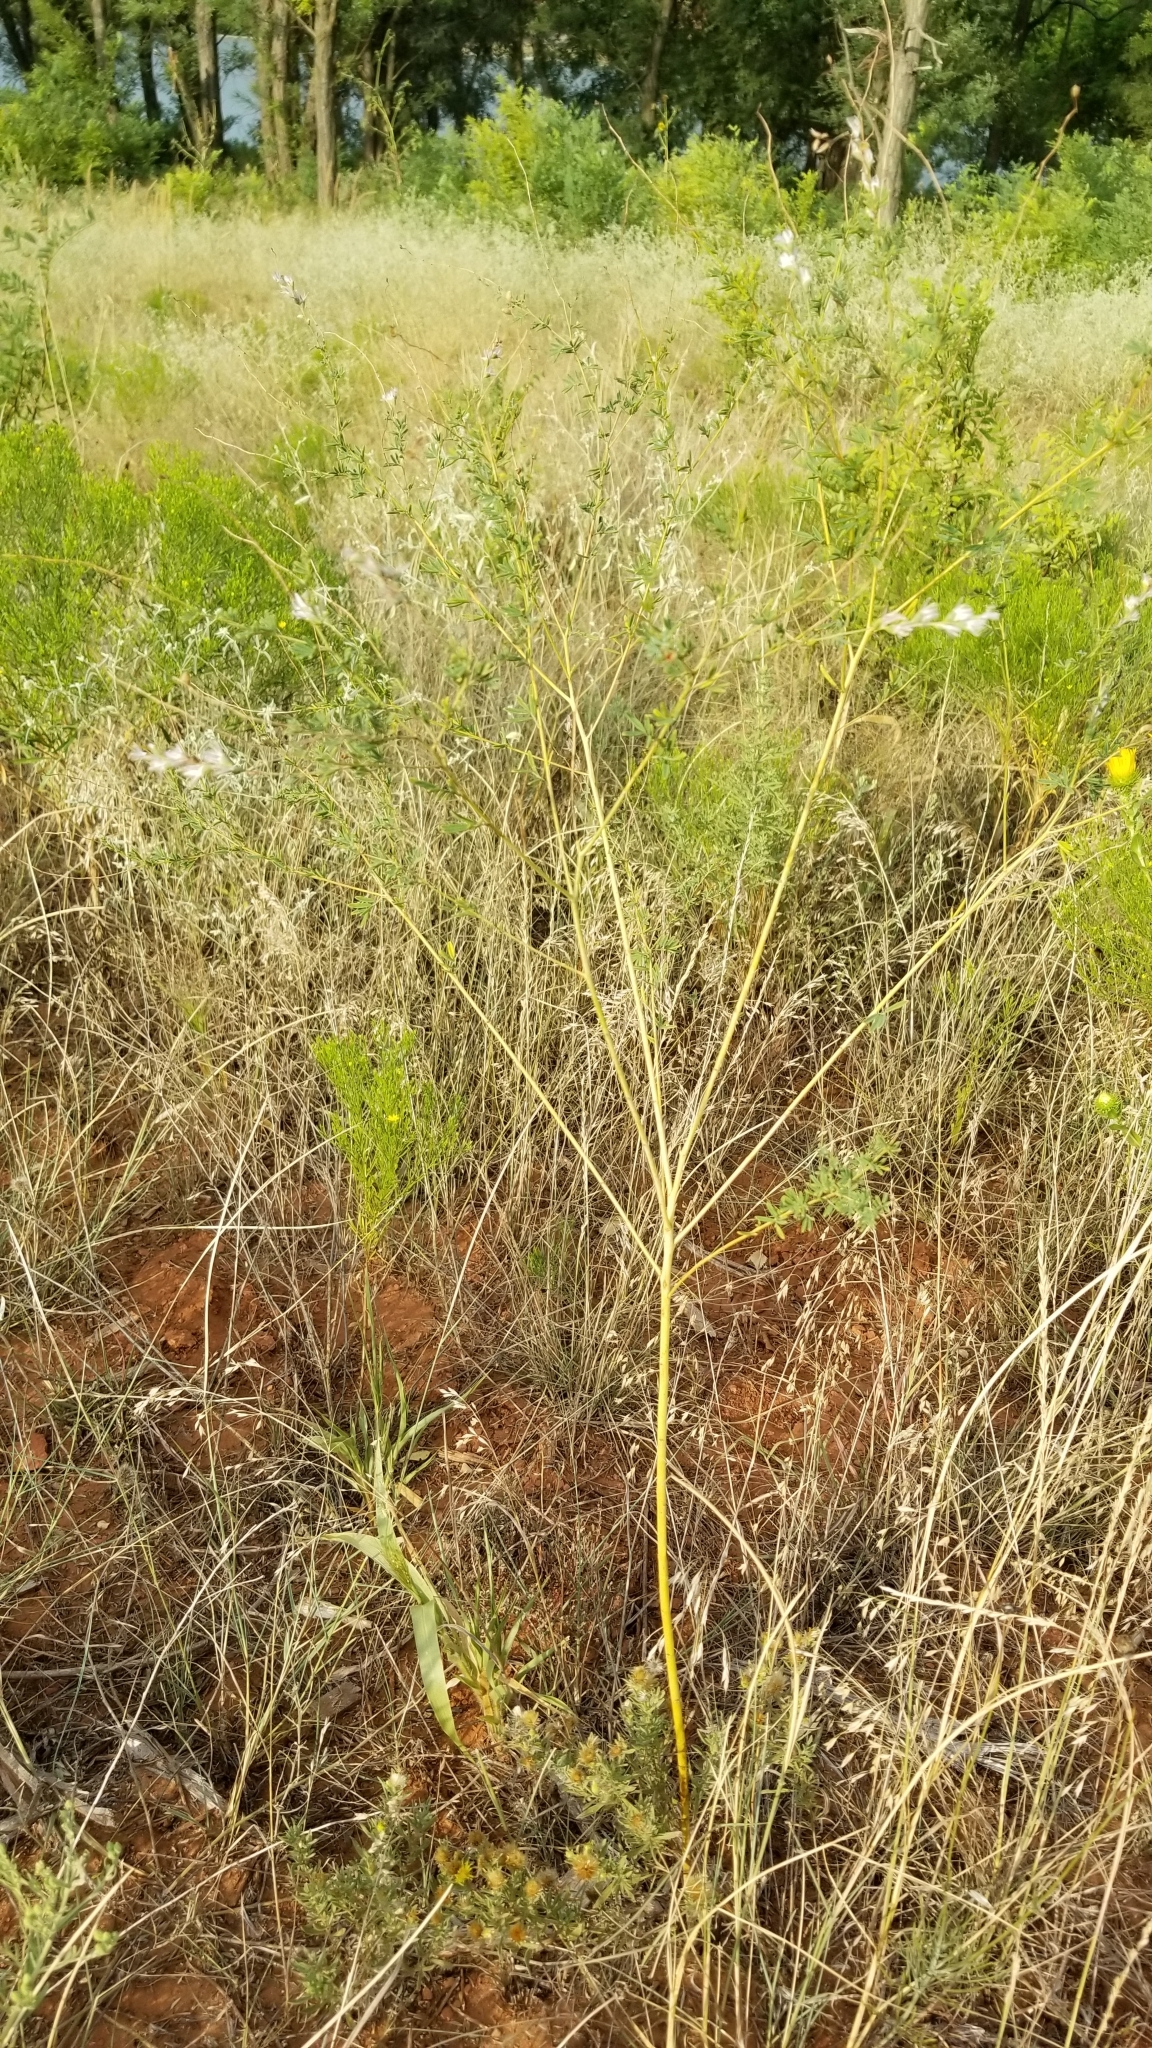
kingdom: Plantae
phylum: Tracheophyta
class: Magnoliopsida
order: Fabales
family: Fabaceae
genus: Dalea
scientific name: Dalea enneandra
